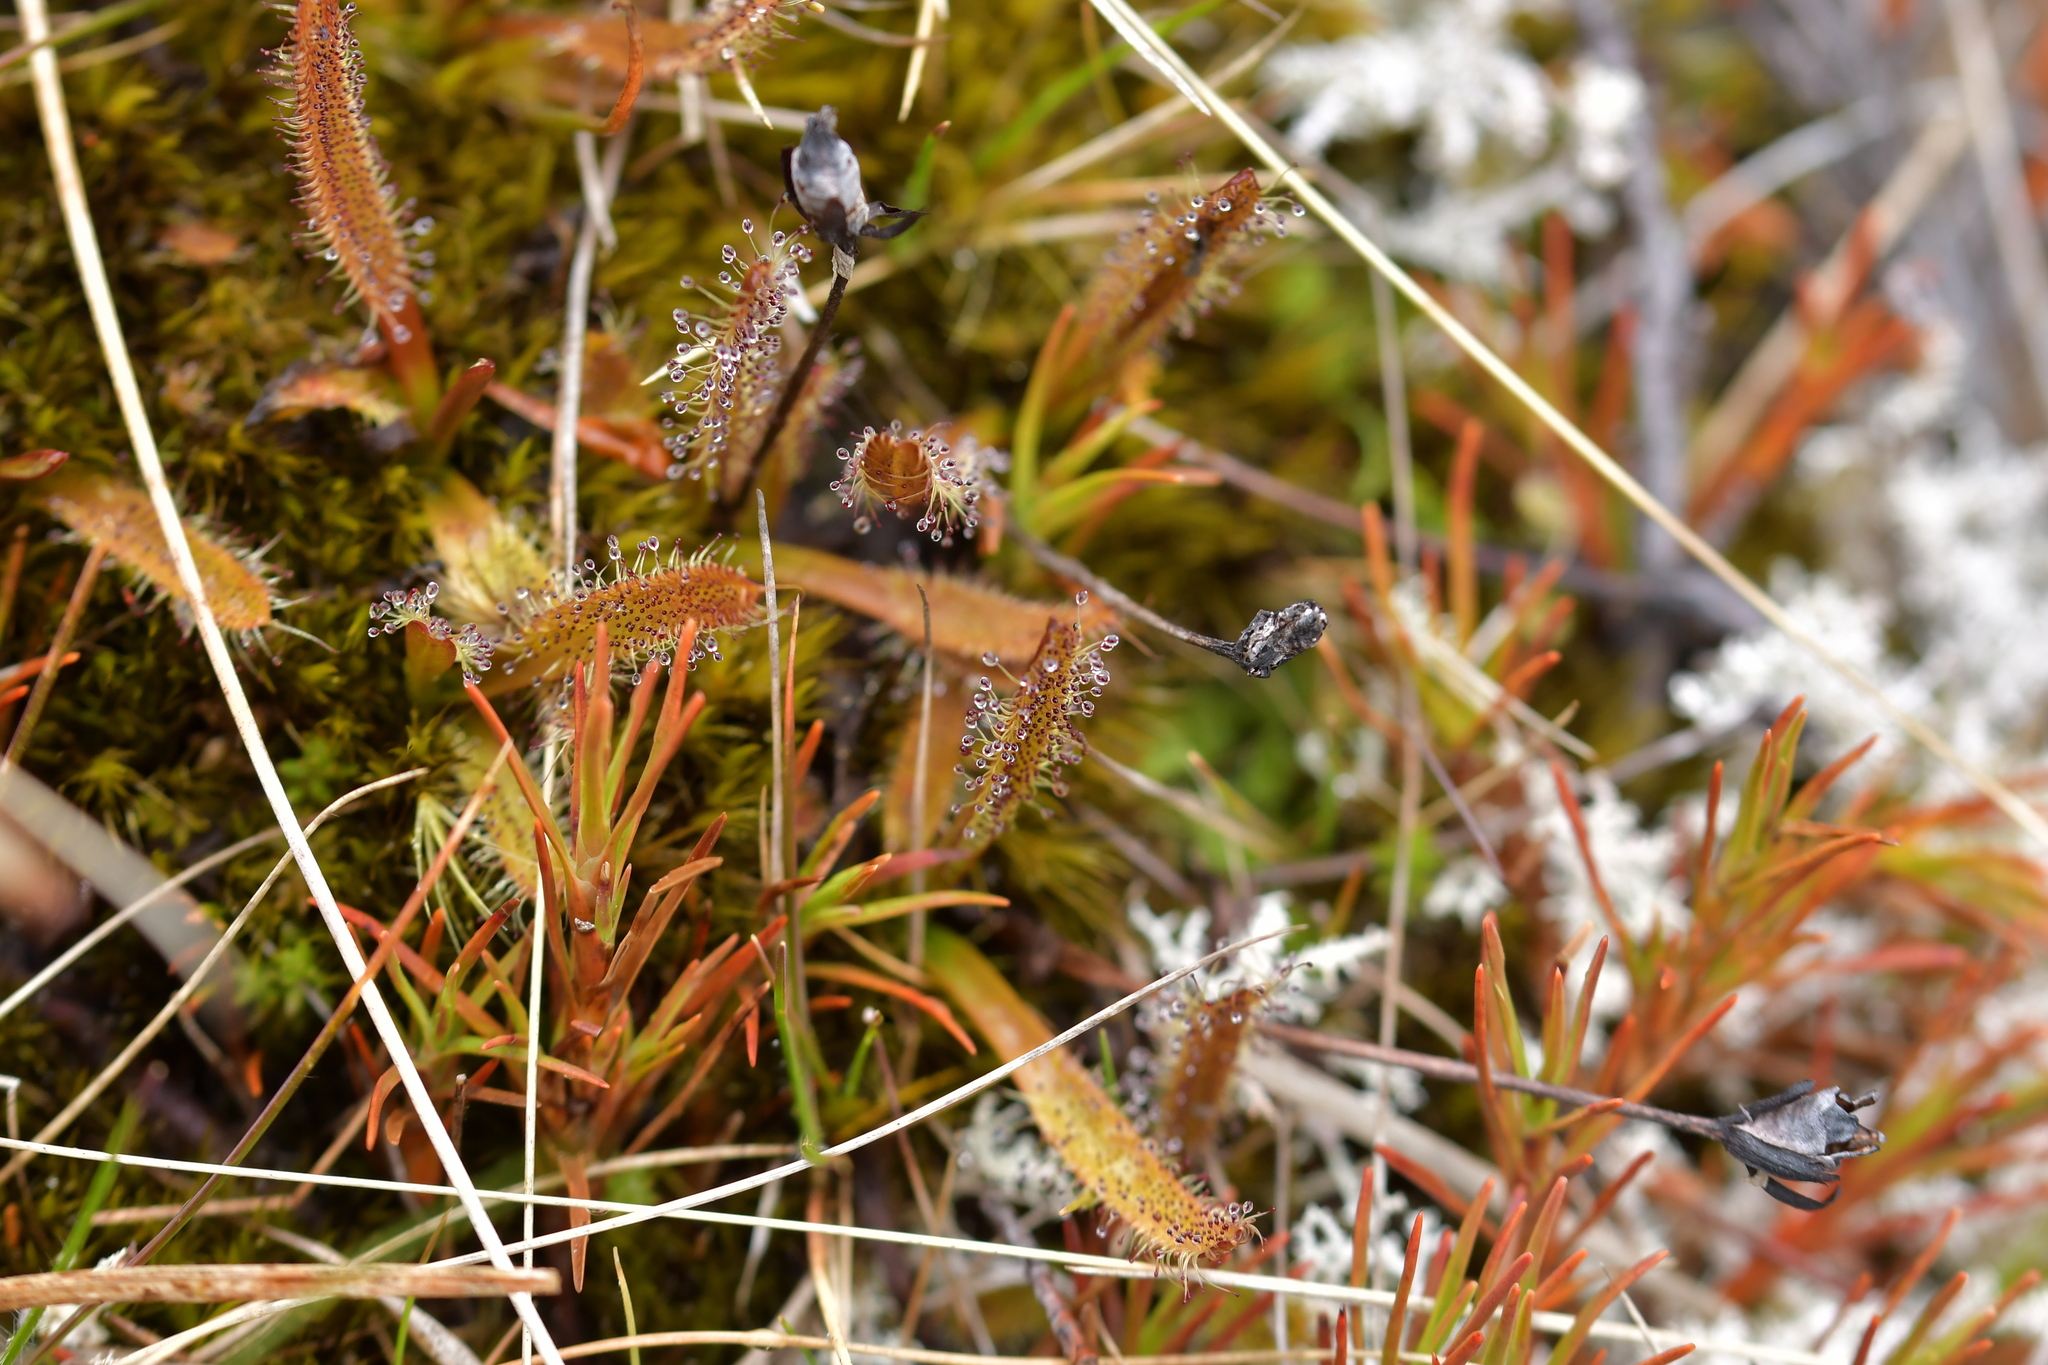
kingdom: Plantae
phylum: Tracheophyta
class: Magnoliopsida
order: Caryophyllales
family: Droseraceae
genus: Drosera
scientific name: Drosera arcturi
